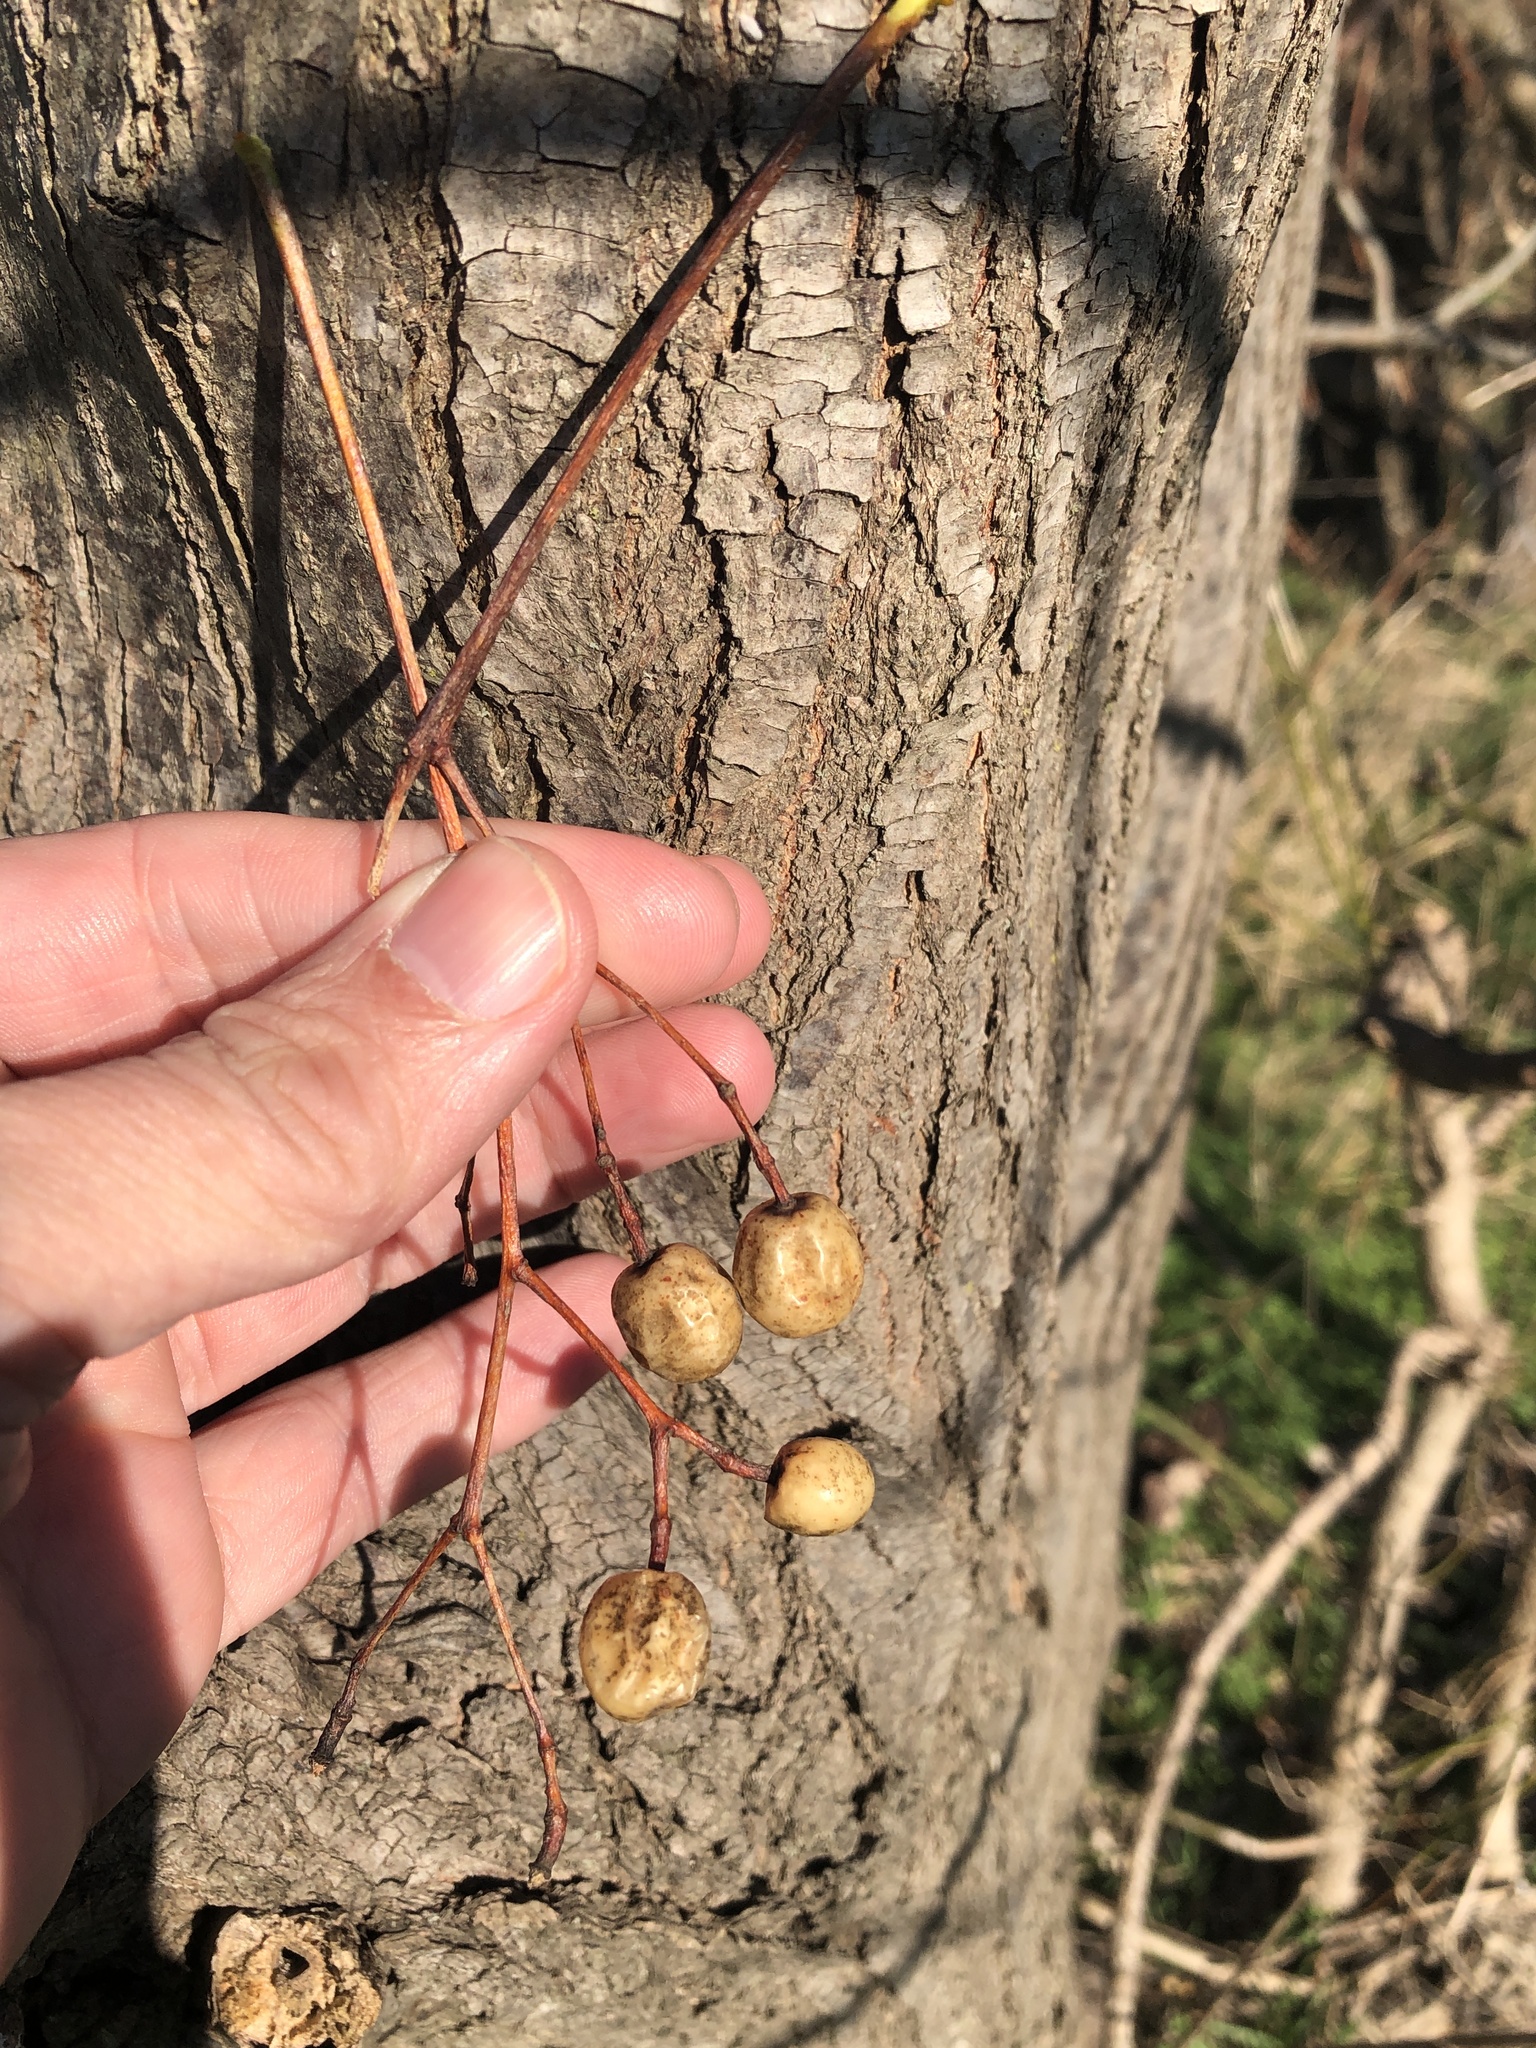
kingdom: Plantae
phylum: Tracheophyta
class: Magnoliopsida
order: Sapindales
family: Meliaceae
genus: Melia
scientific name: Melia azedarach
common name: Chinaberrytree
